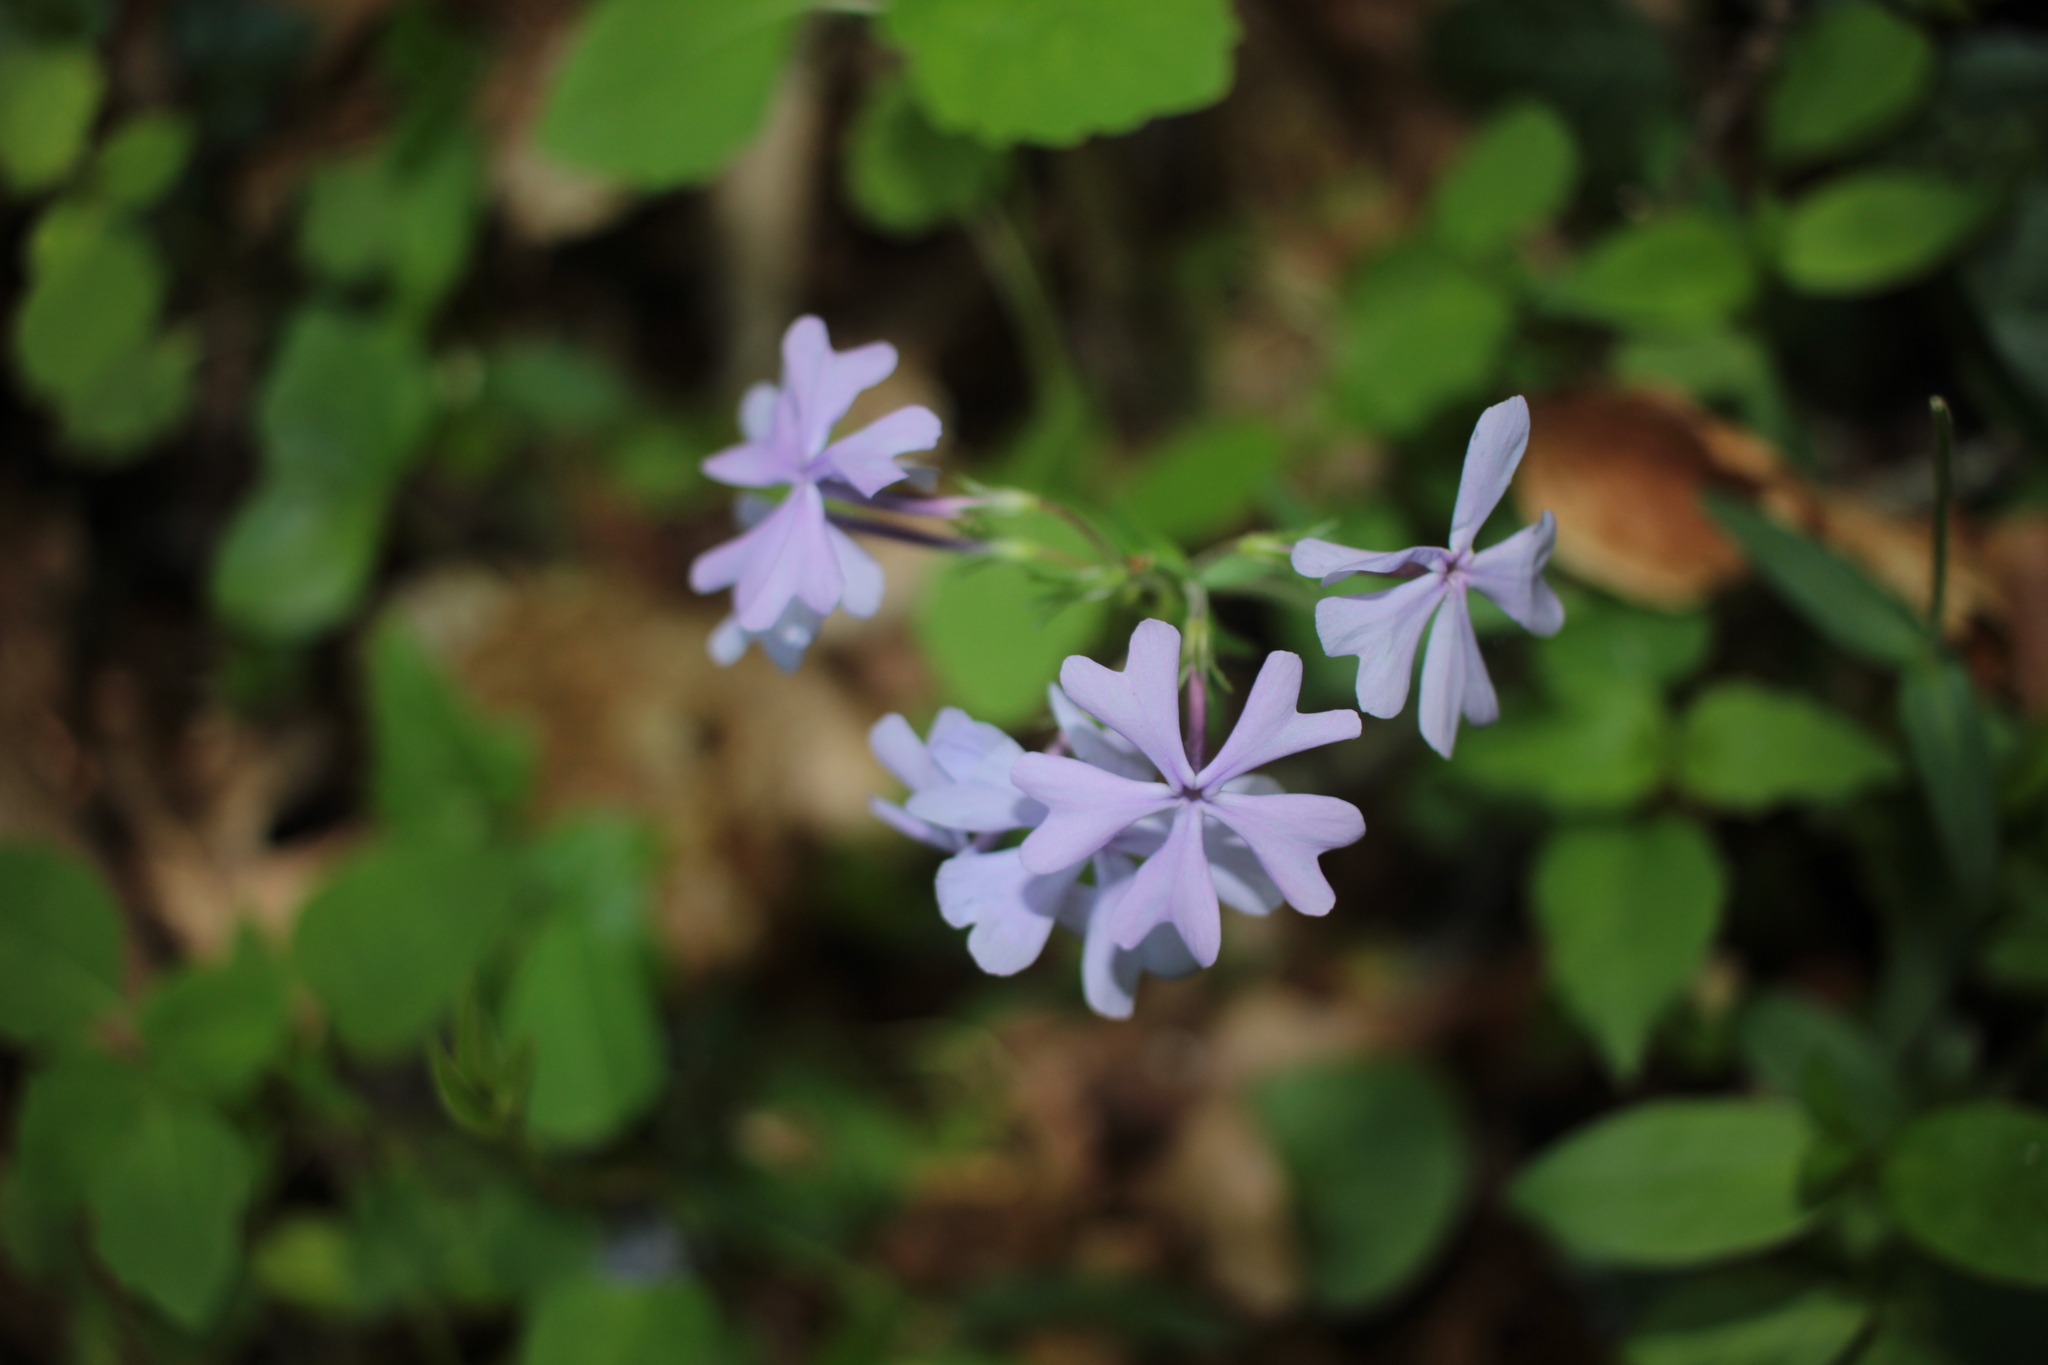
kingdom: Plantae
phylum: Tracheophyta
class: Magnoliopsida
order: Ericales
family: Polemoniaceae
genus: Phlox
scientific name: Phlox divaricata
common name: Blue phlox
